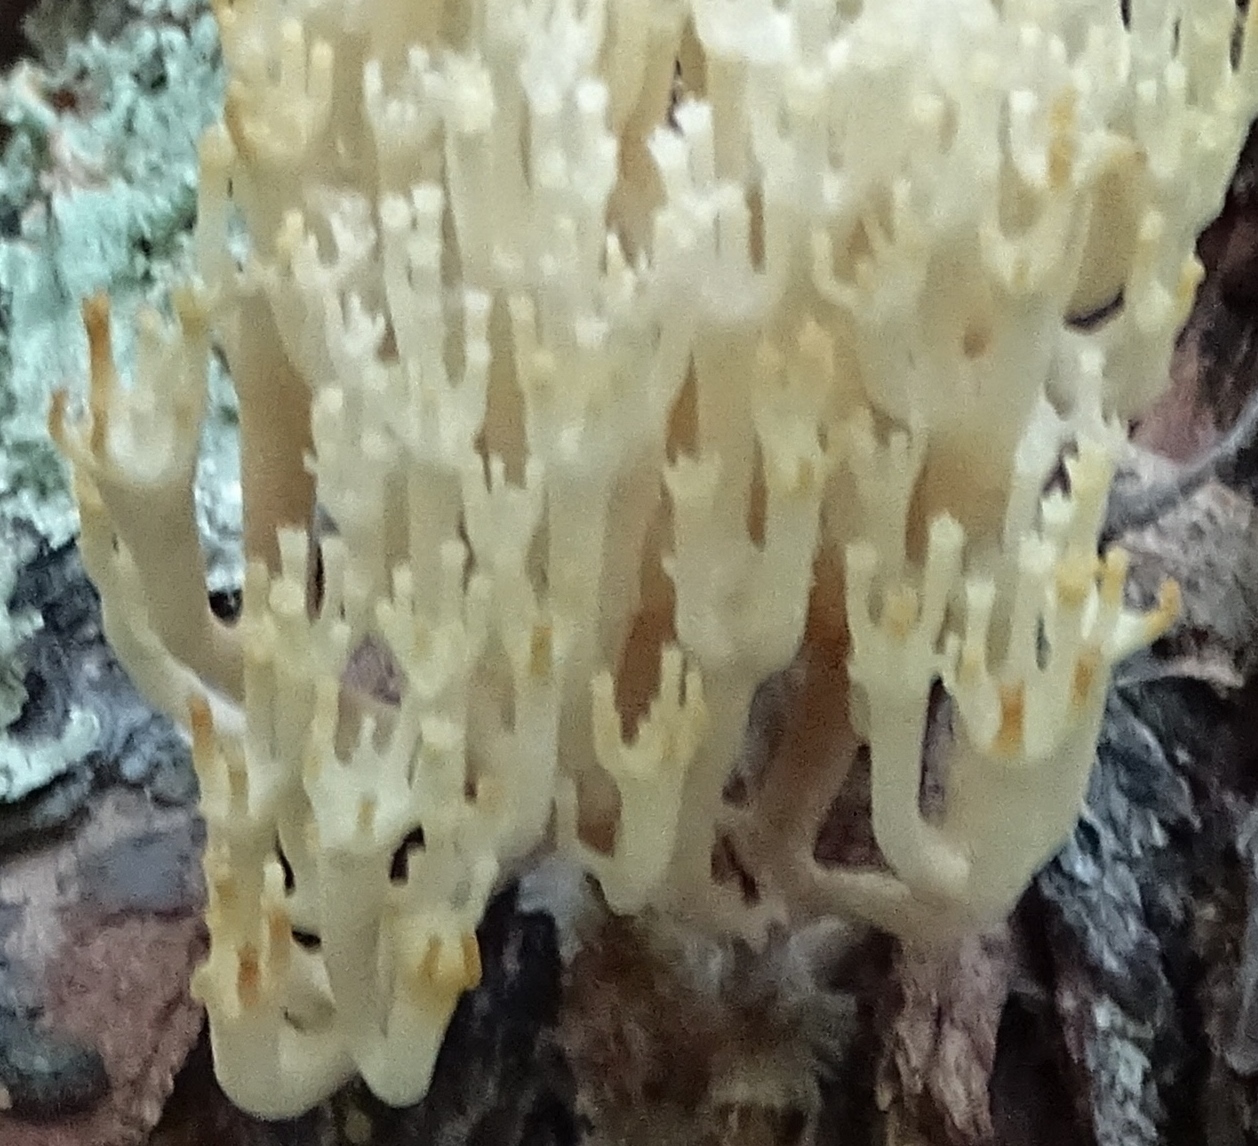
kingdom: Fungi
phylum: Basidiomycota
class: Agaricomycetes
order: Russulales
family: Auriscalpiaceae
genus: Artomyces
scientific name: Artomyces pyxidatus
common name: Crown-tipped coral fungus
